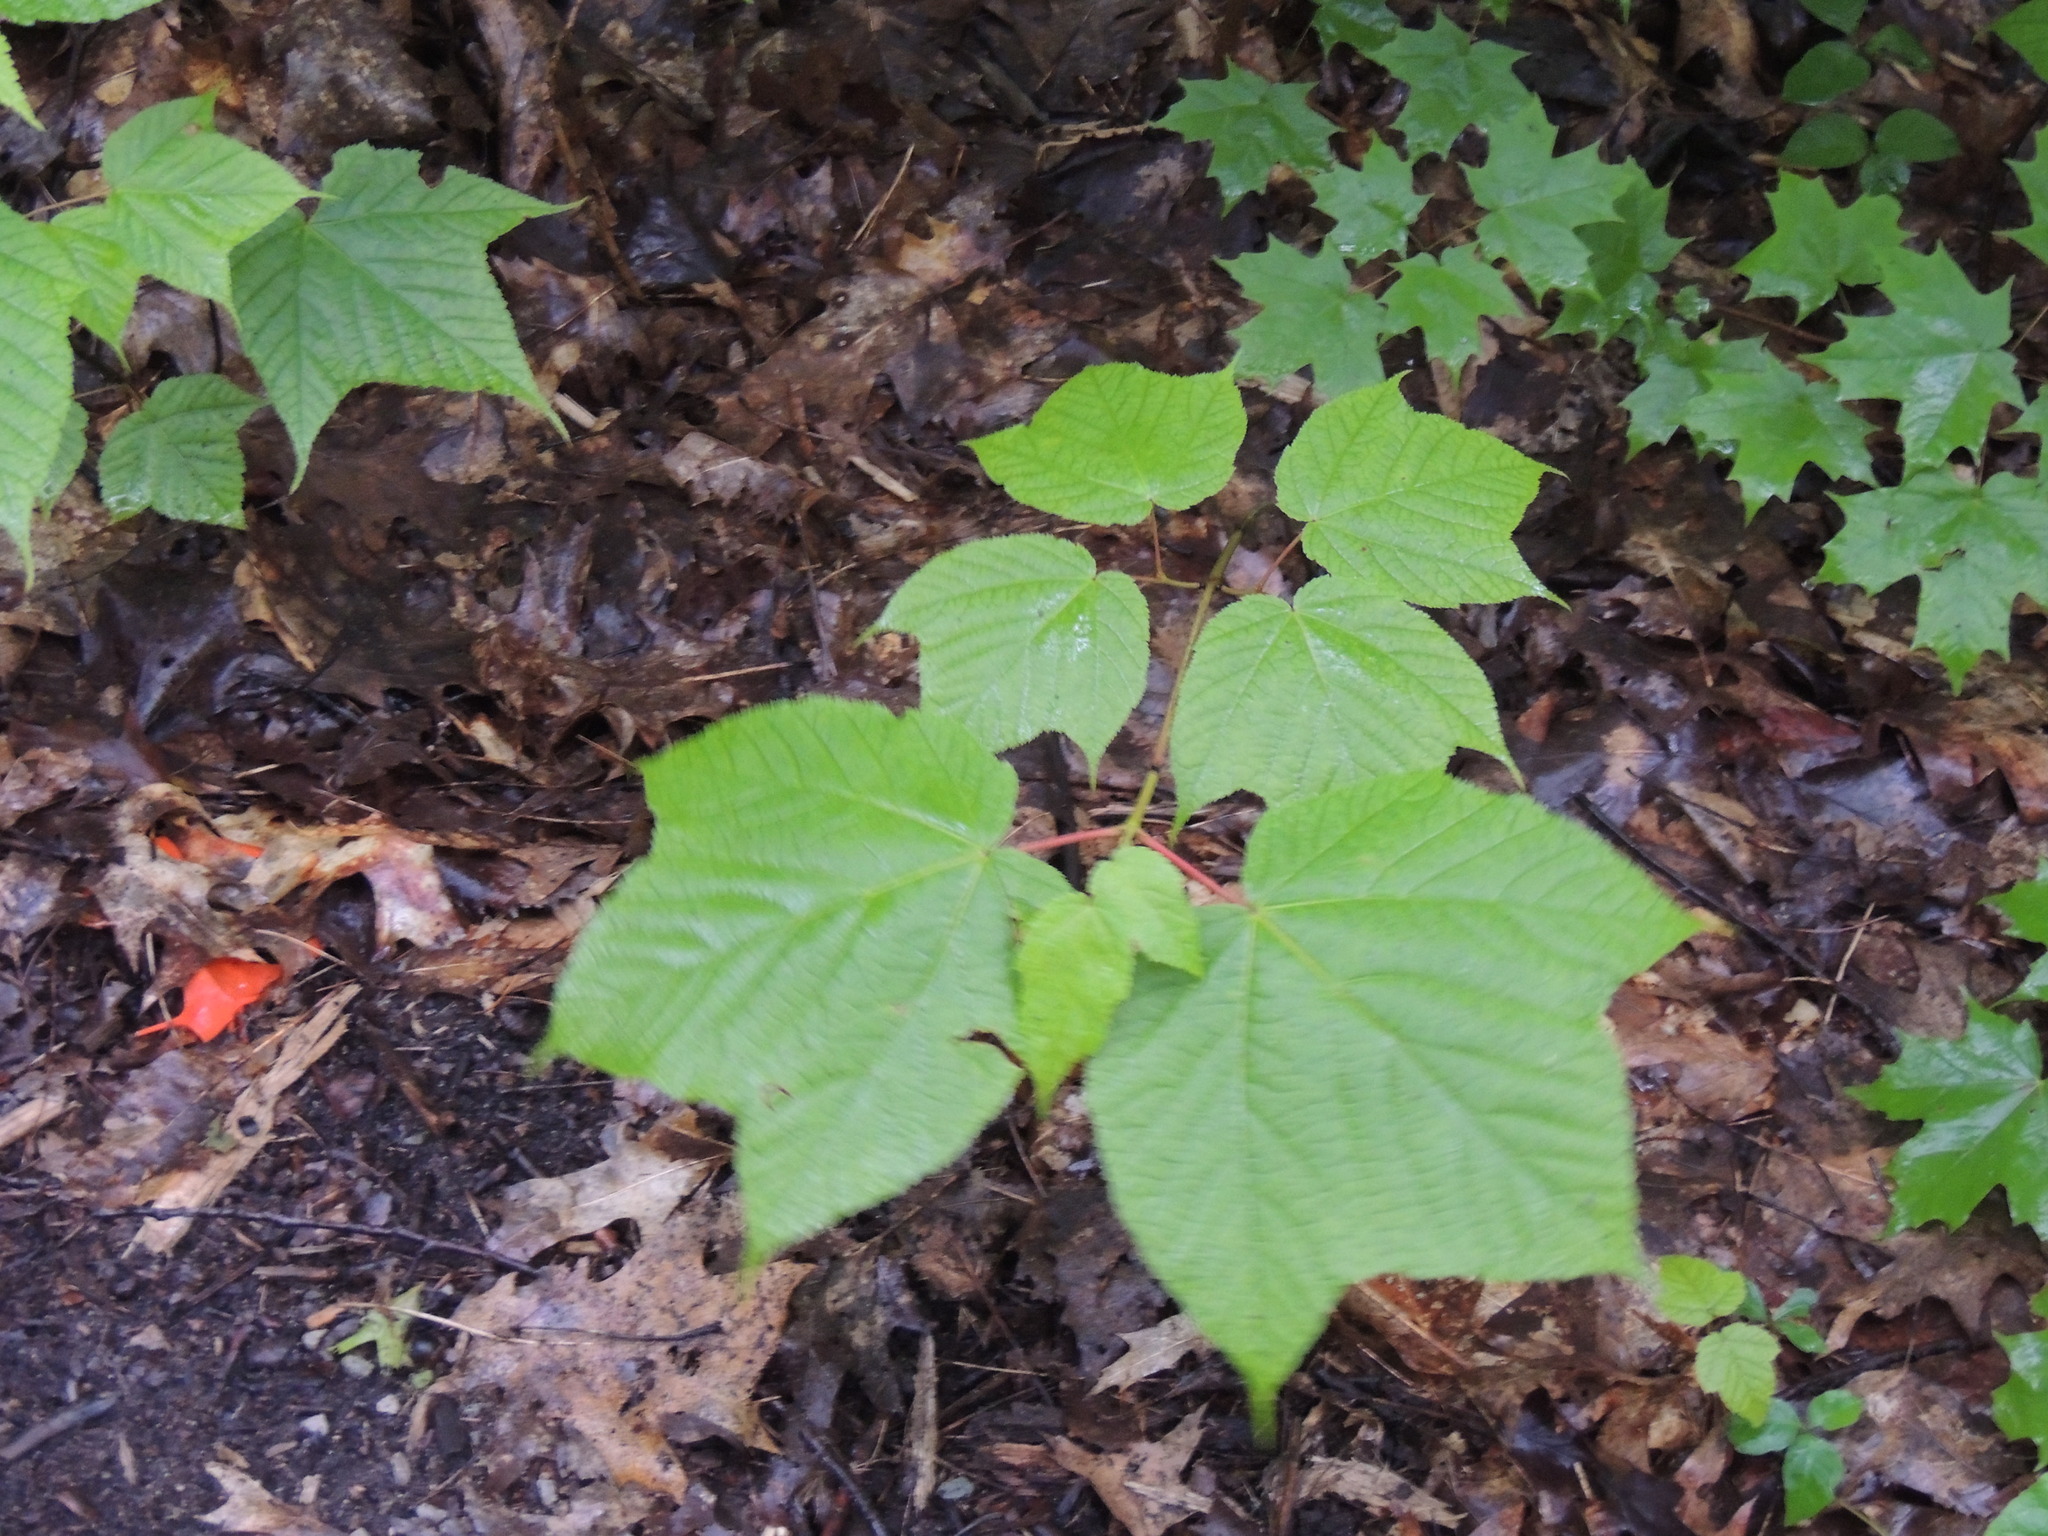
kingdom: Plantae
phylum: Tracheophyta
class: Magnoliopsida
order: Sapindales
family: Sapindaceae
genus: Acer
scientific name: Acer pensylvanicum
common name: Moosewood
